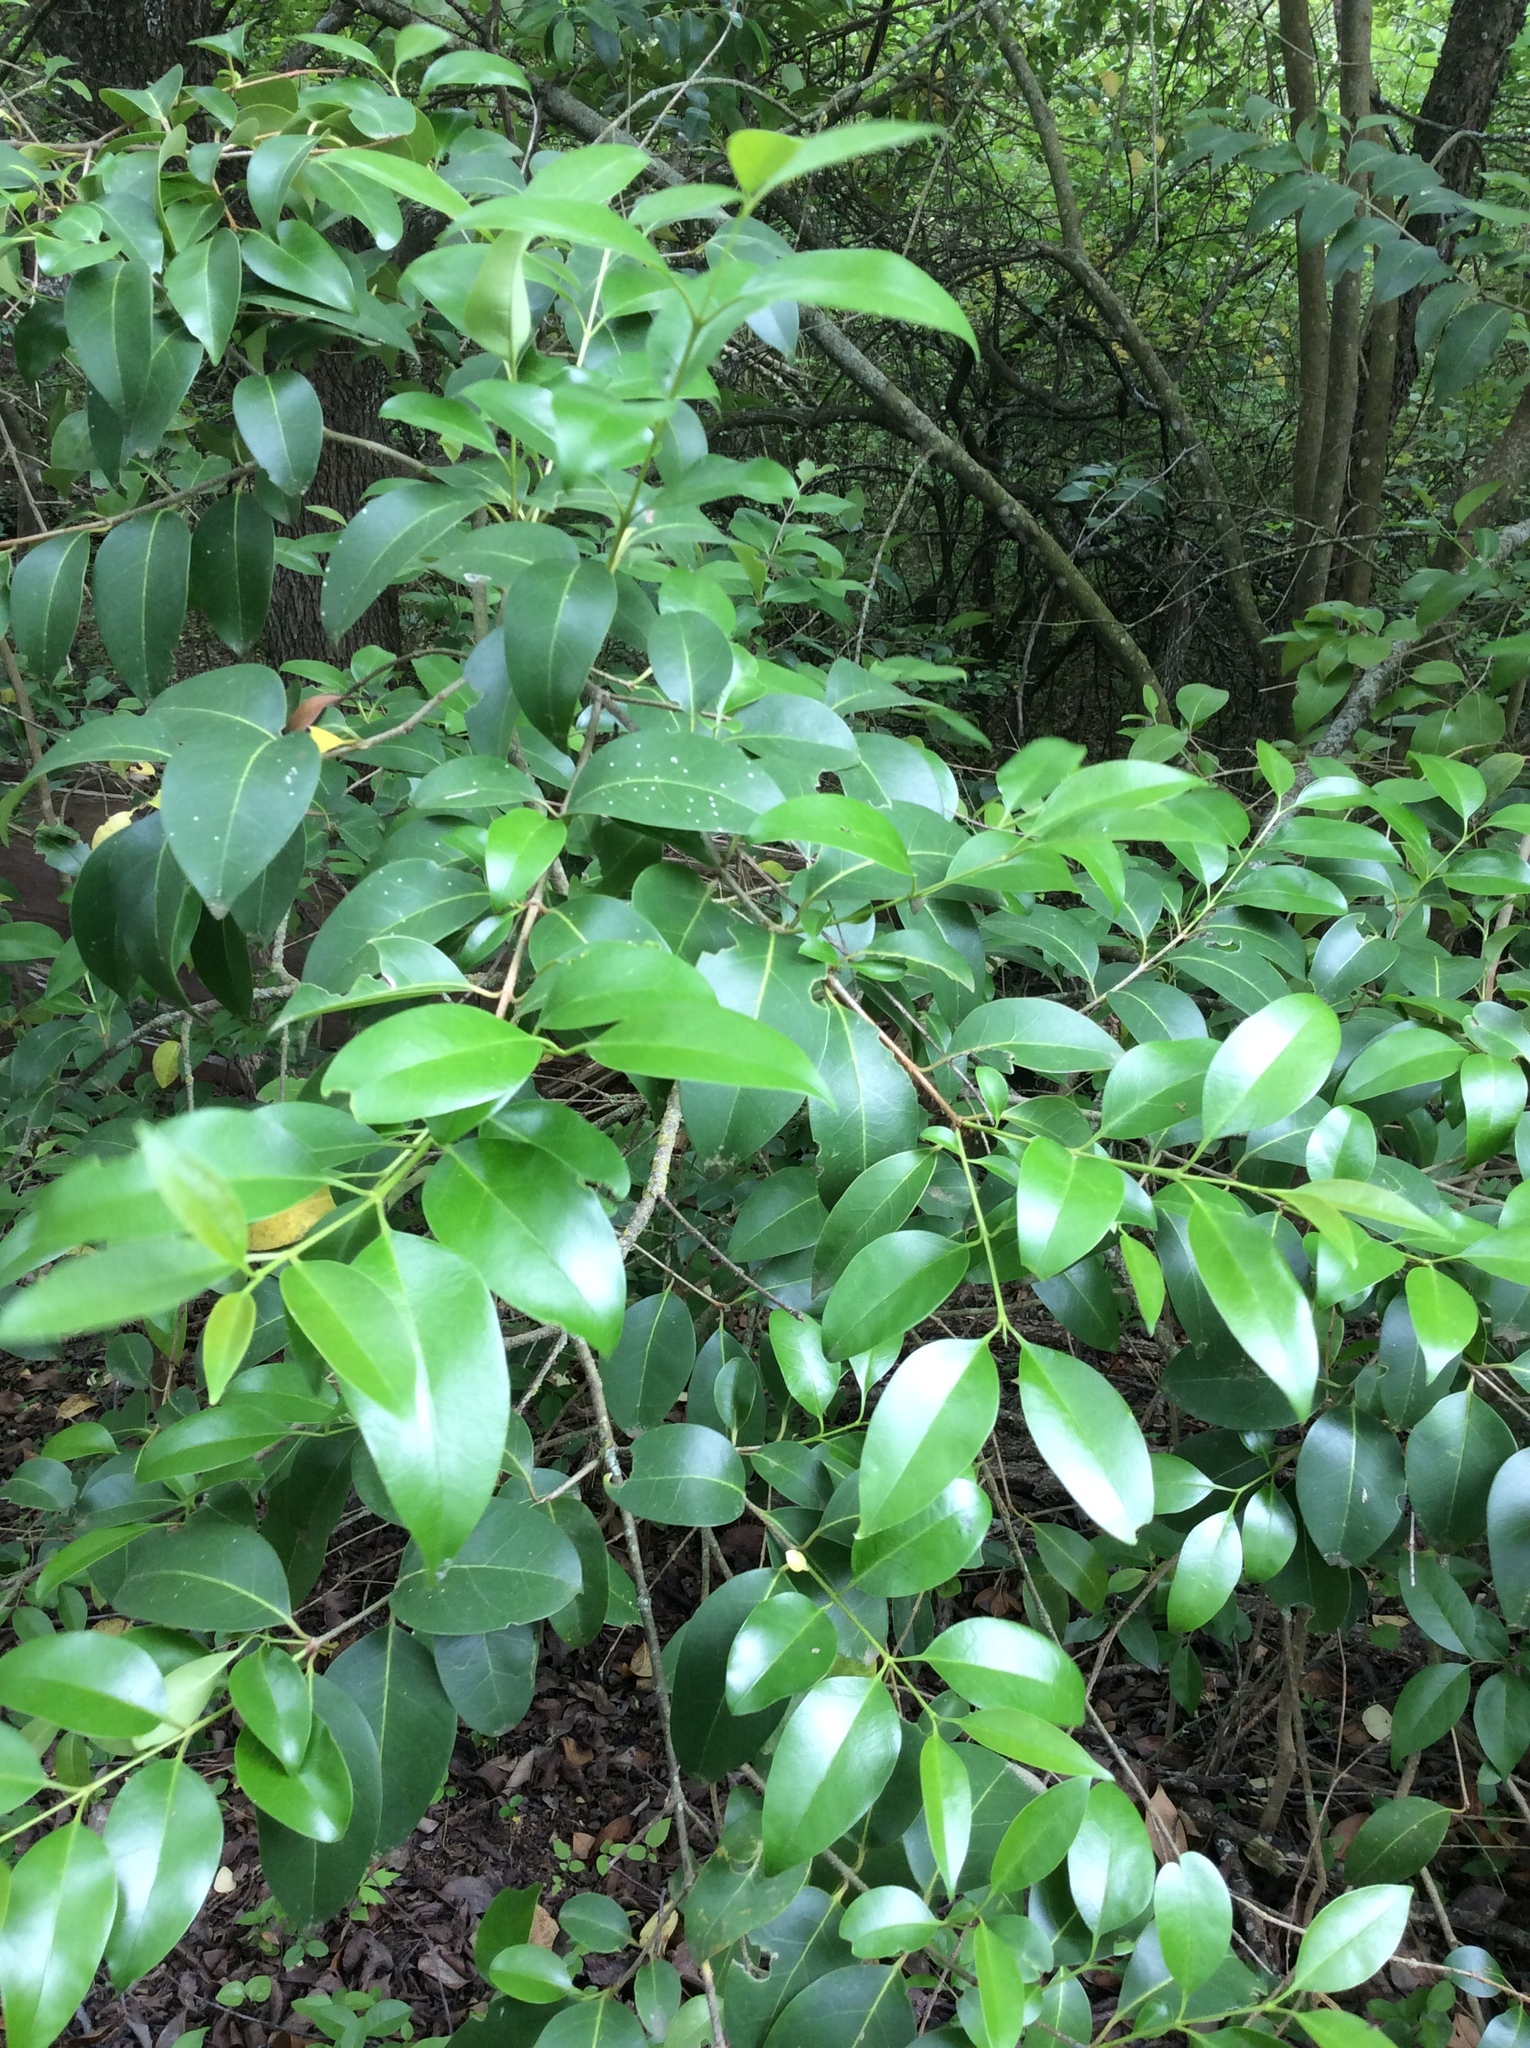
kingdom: Plantae
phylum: Tracheophyta
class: Magnoliopsida
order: Lamiales
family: Oleaceae
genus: Ligustrum
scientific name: Ligustrum lucidum
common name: Glossy privet
